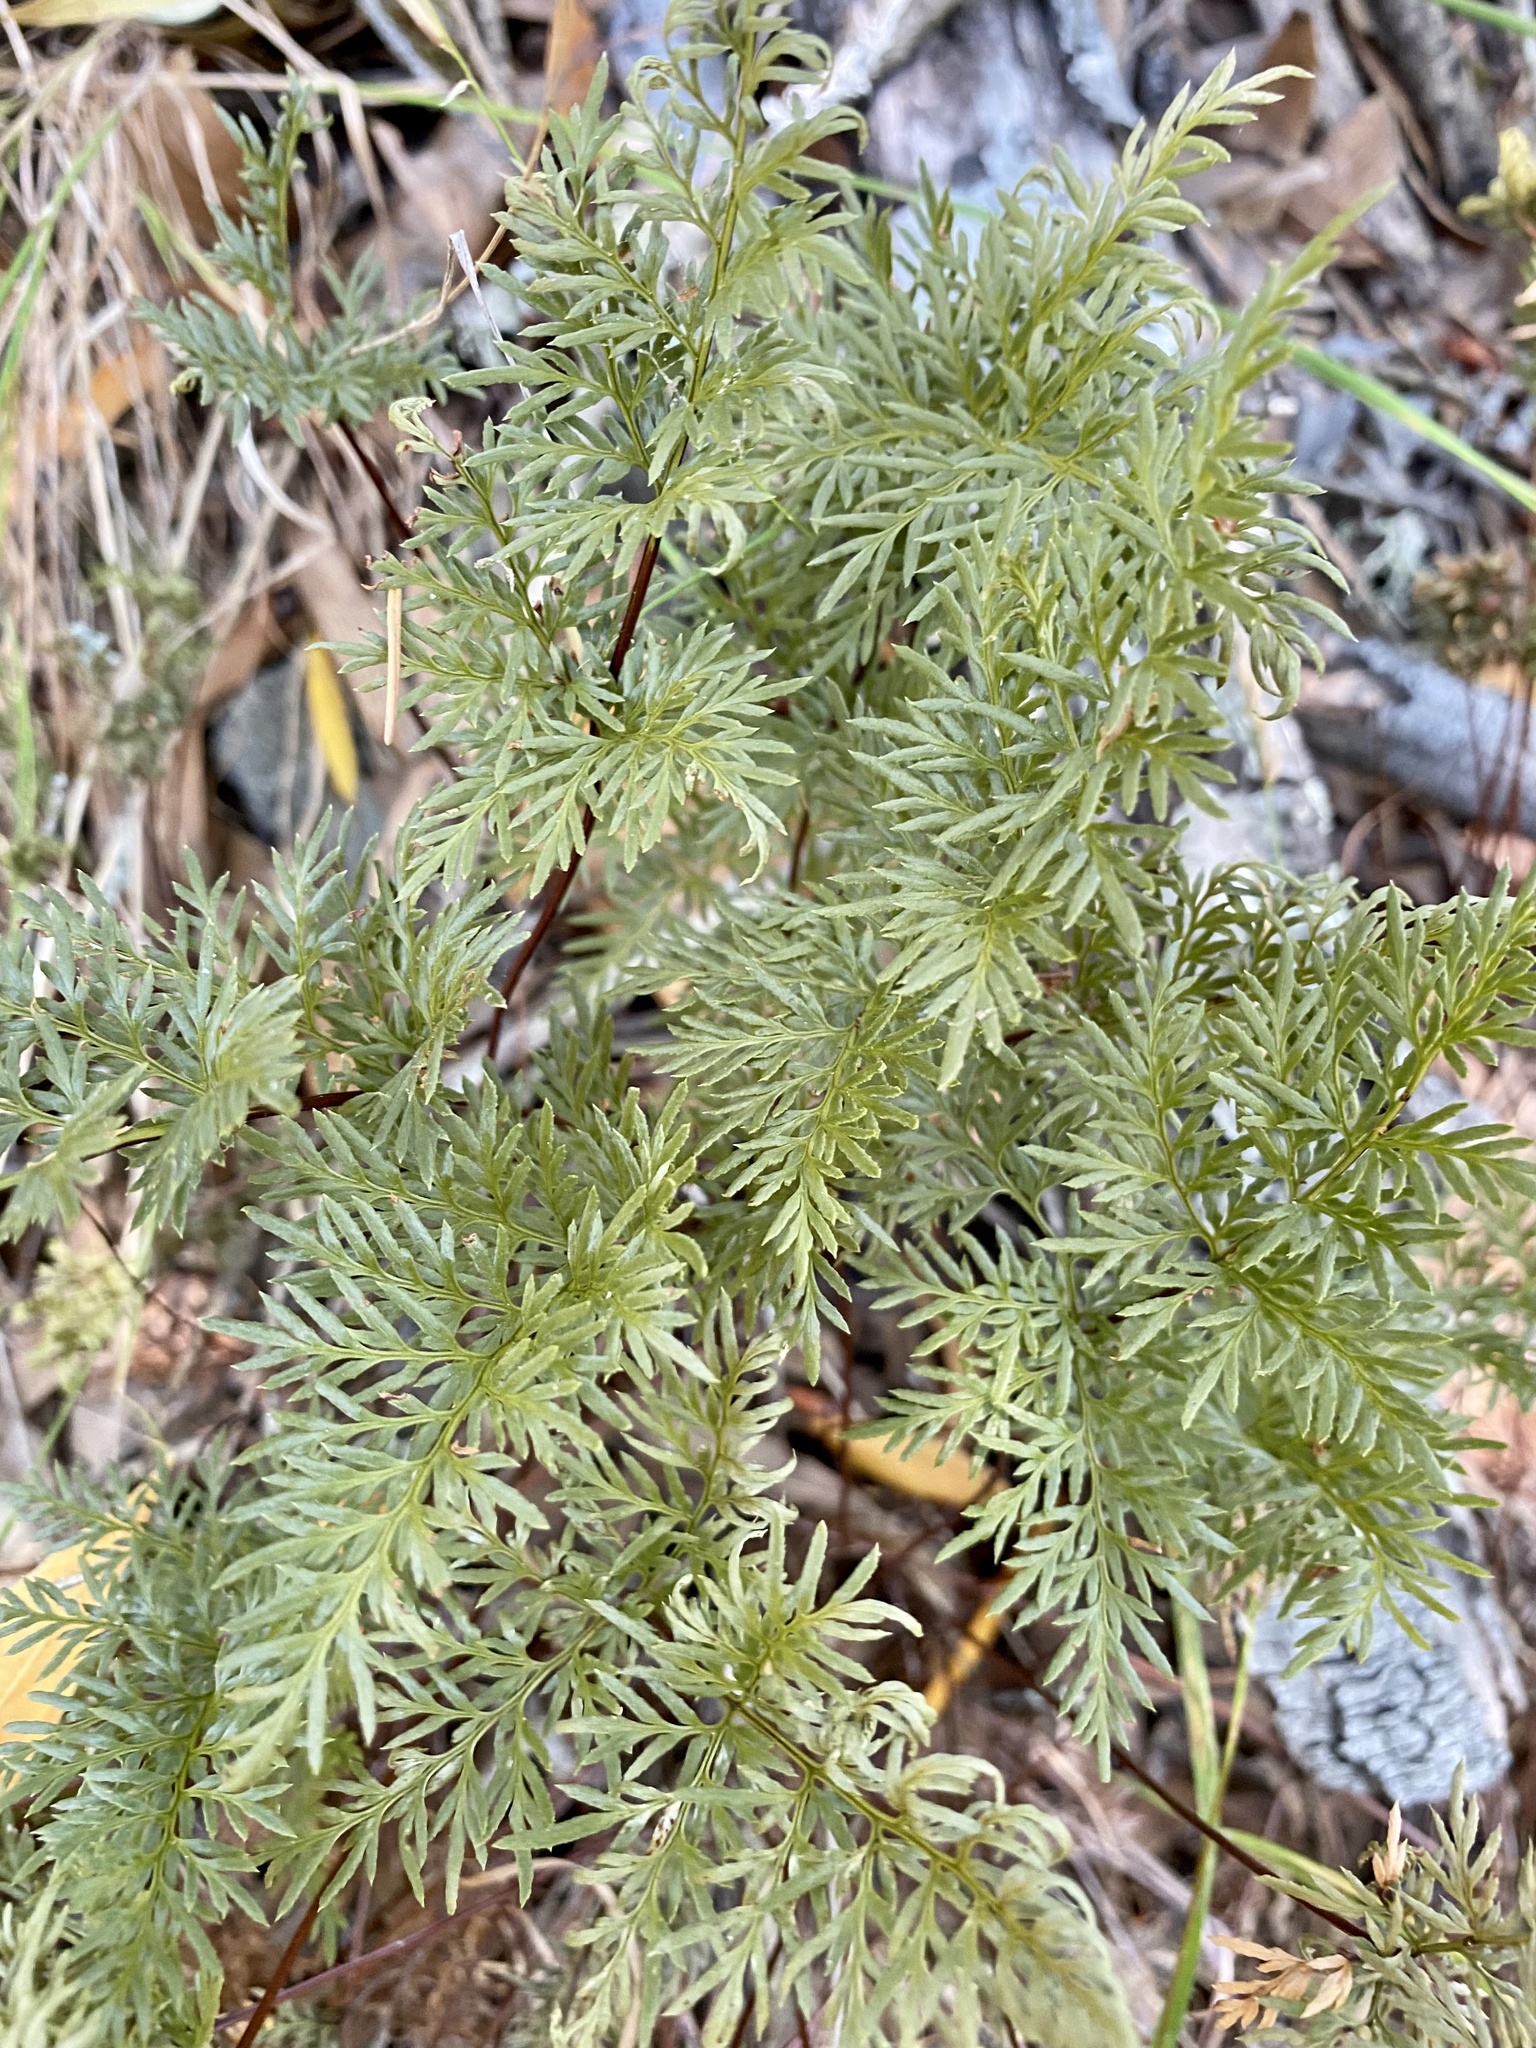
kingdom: Plantae
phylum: Tracheophyta
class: Polypodiopsida
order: Polypodiales
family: Pteridaceae
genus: Aspidotis
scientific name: Aspidotis densa
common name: Indian's dream
